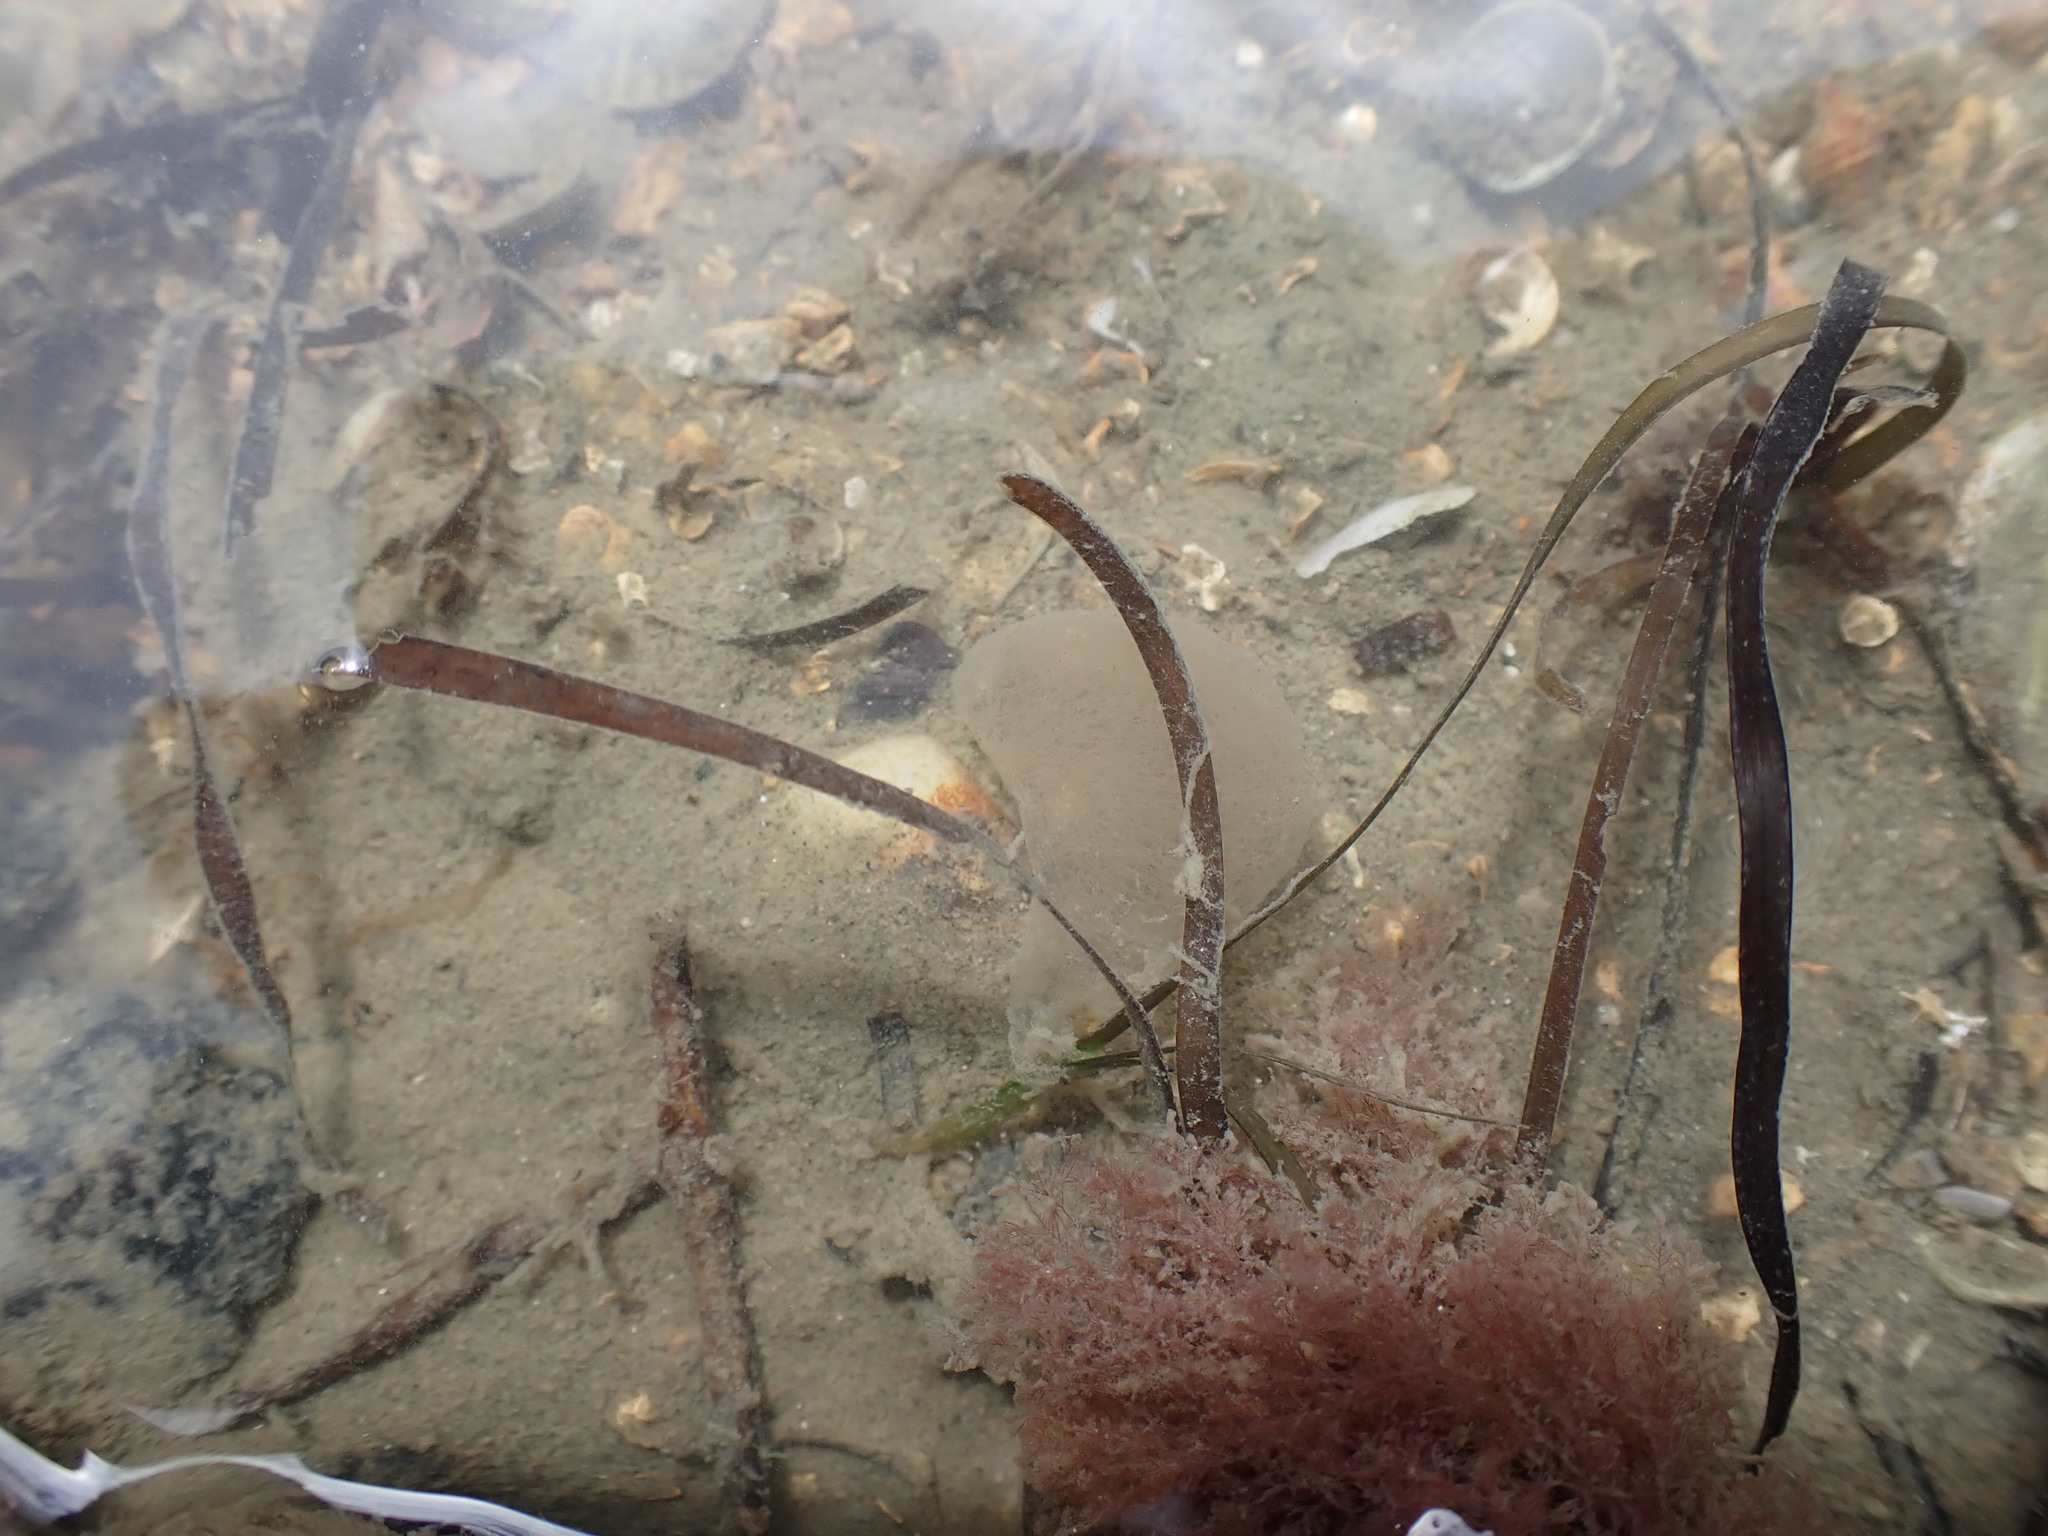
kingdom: Plantae
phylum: Tracheophyta
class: Liliopsida
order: Alismatales
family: Zosteraceae
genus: Zostera
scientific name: Zostera novazelandica
